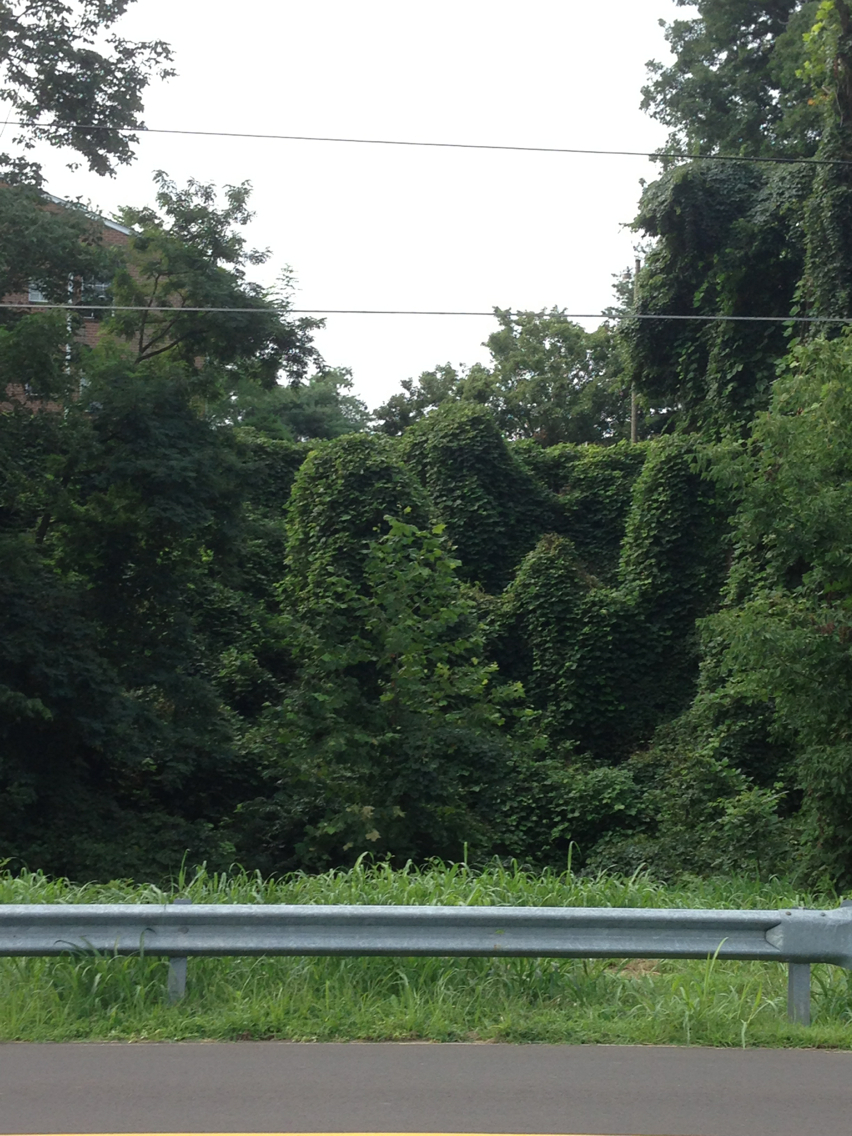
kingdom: Plantae
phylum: Tracheophyta
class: Magnoliopsida
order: Fabales
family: Fabaceae
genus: Pueraria
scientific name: Pueraria montana
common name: Kudzu
